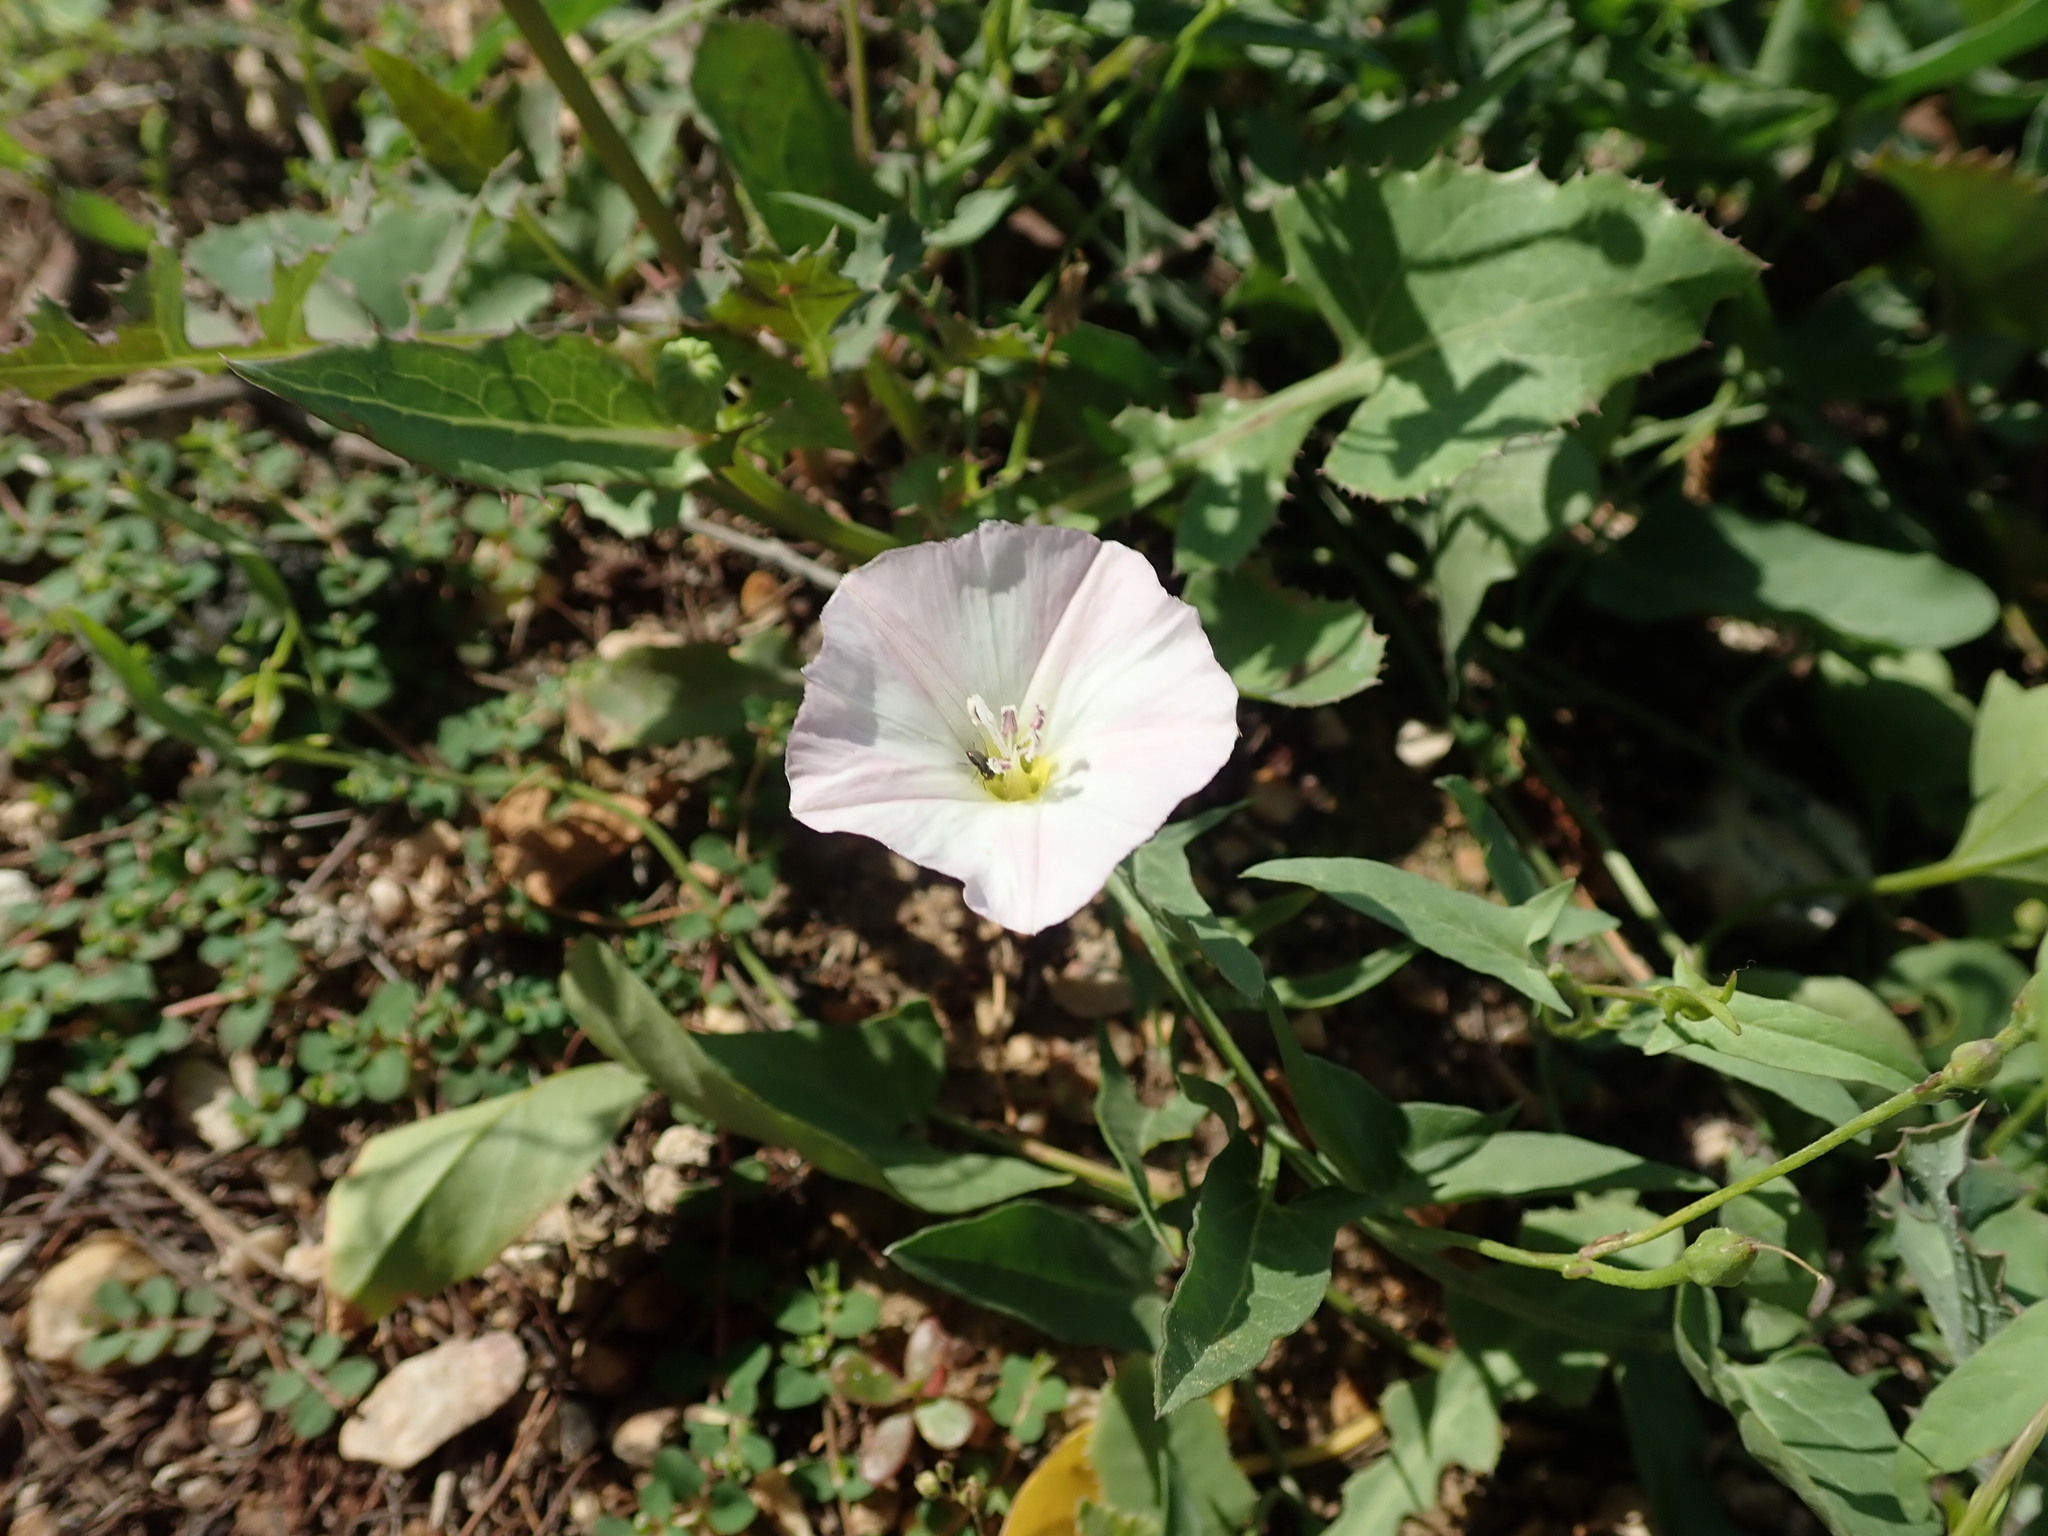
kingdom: Plantae
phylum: Tracheophyta
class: Magnoliopsida
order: Solanales
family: Convolvulaceae
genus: Convolvulus
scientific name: Convolvulus arvensis
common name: Field bindweed
